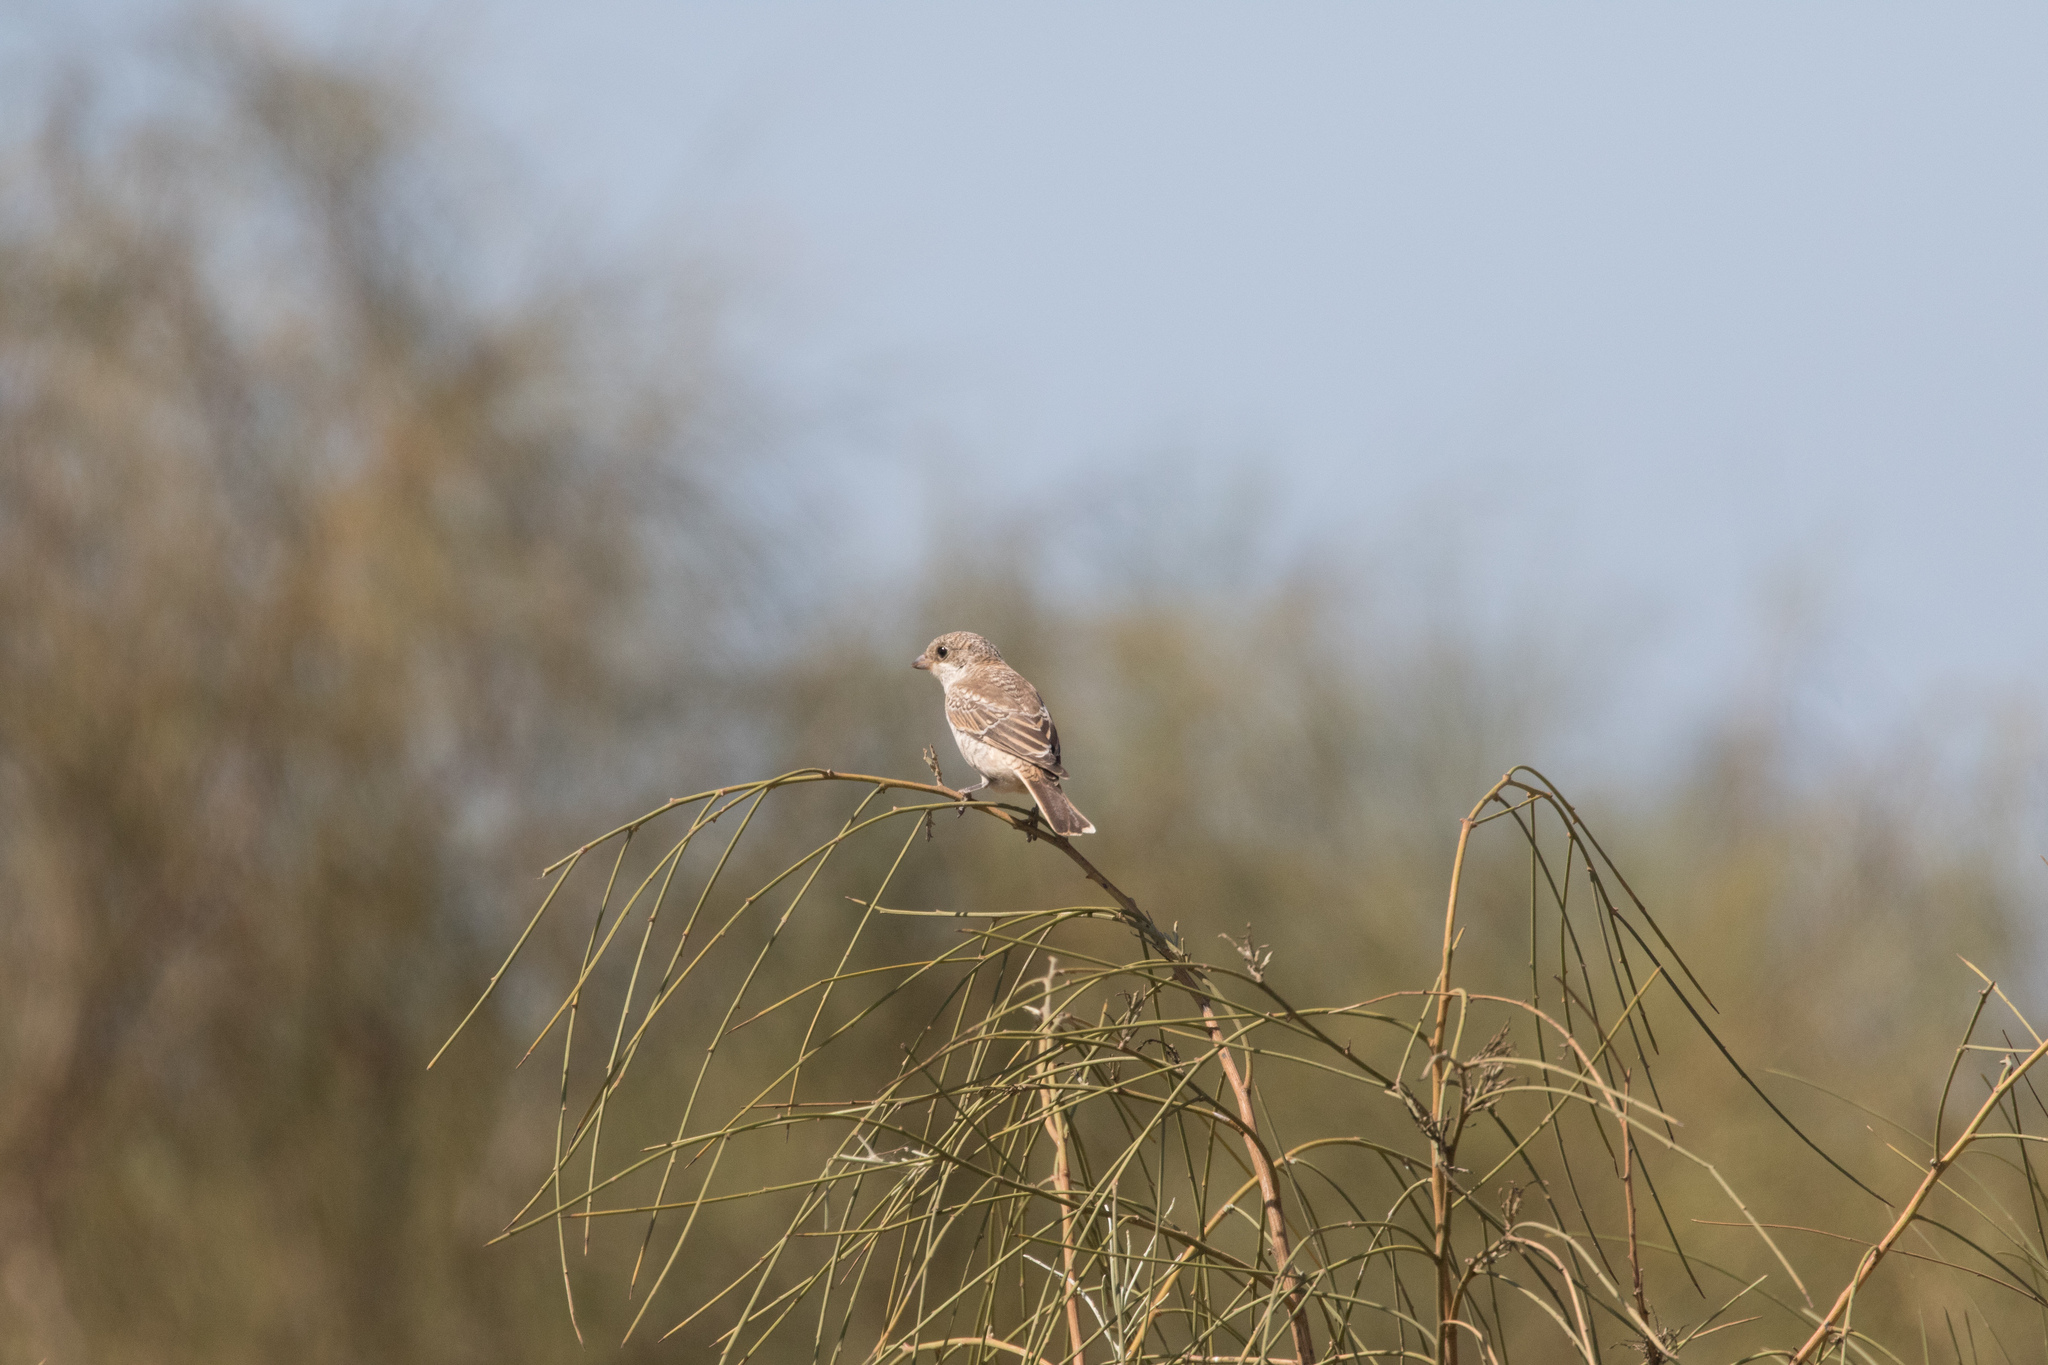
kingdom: Animalia
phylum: Chordata
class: Aves
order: Passeriformes
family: Laniidae
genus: Lanius
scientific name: Lanius senator
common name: Woodchat shrike
